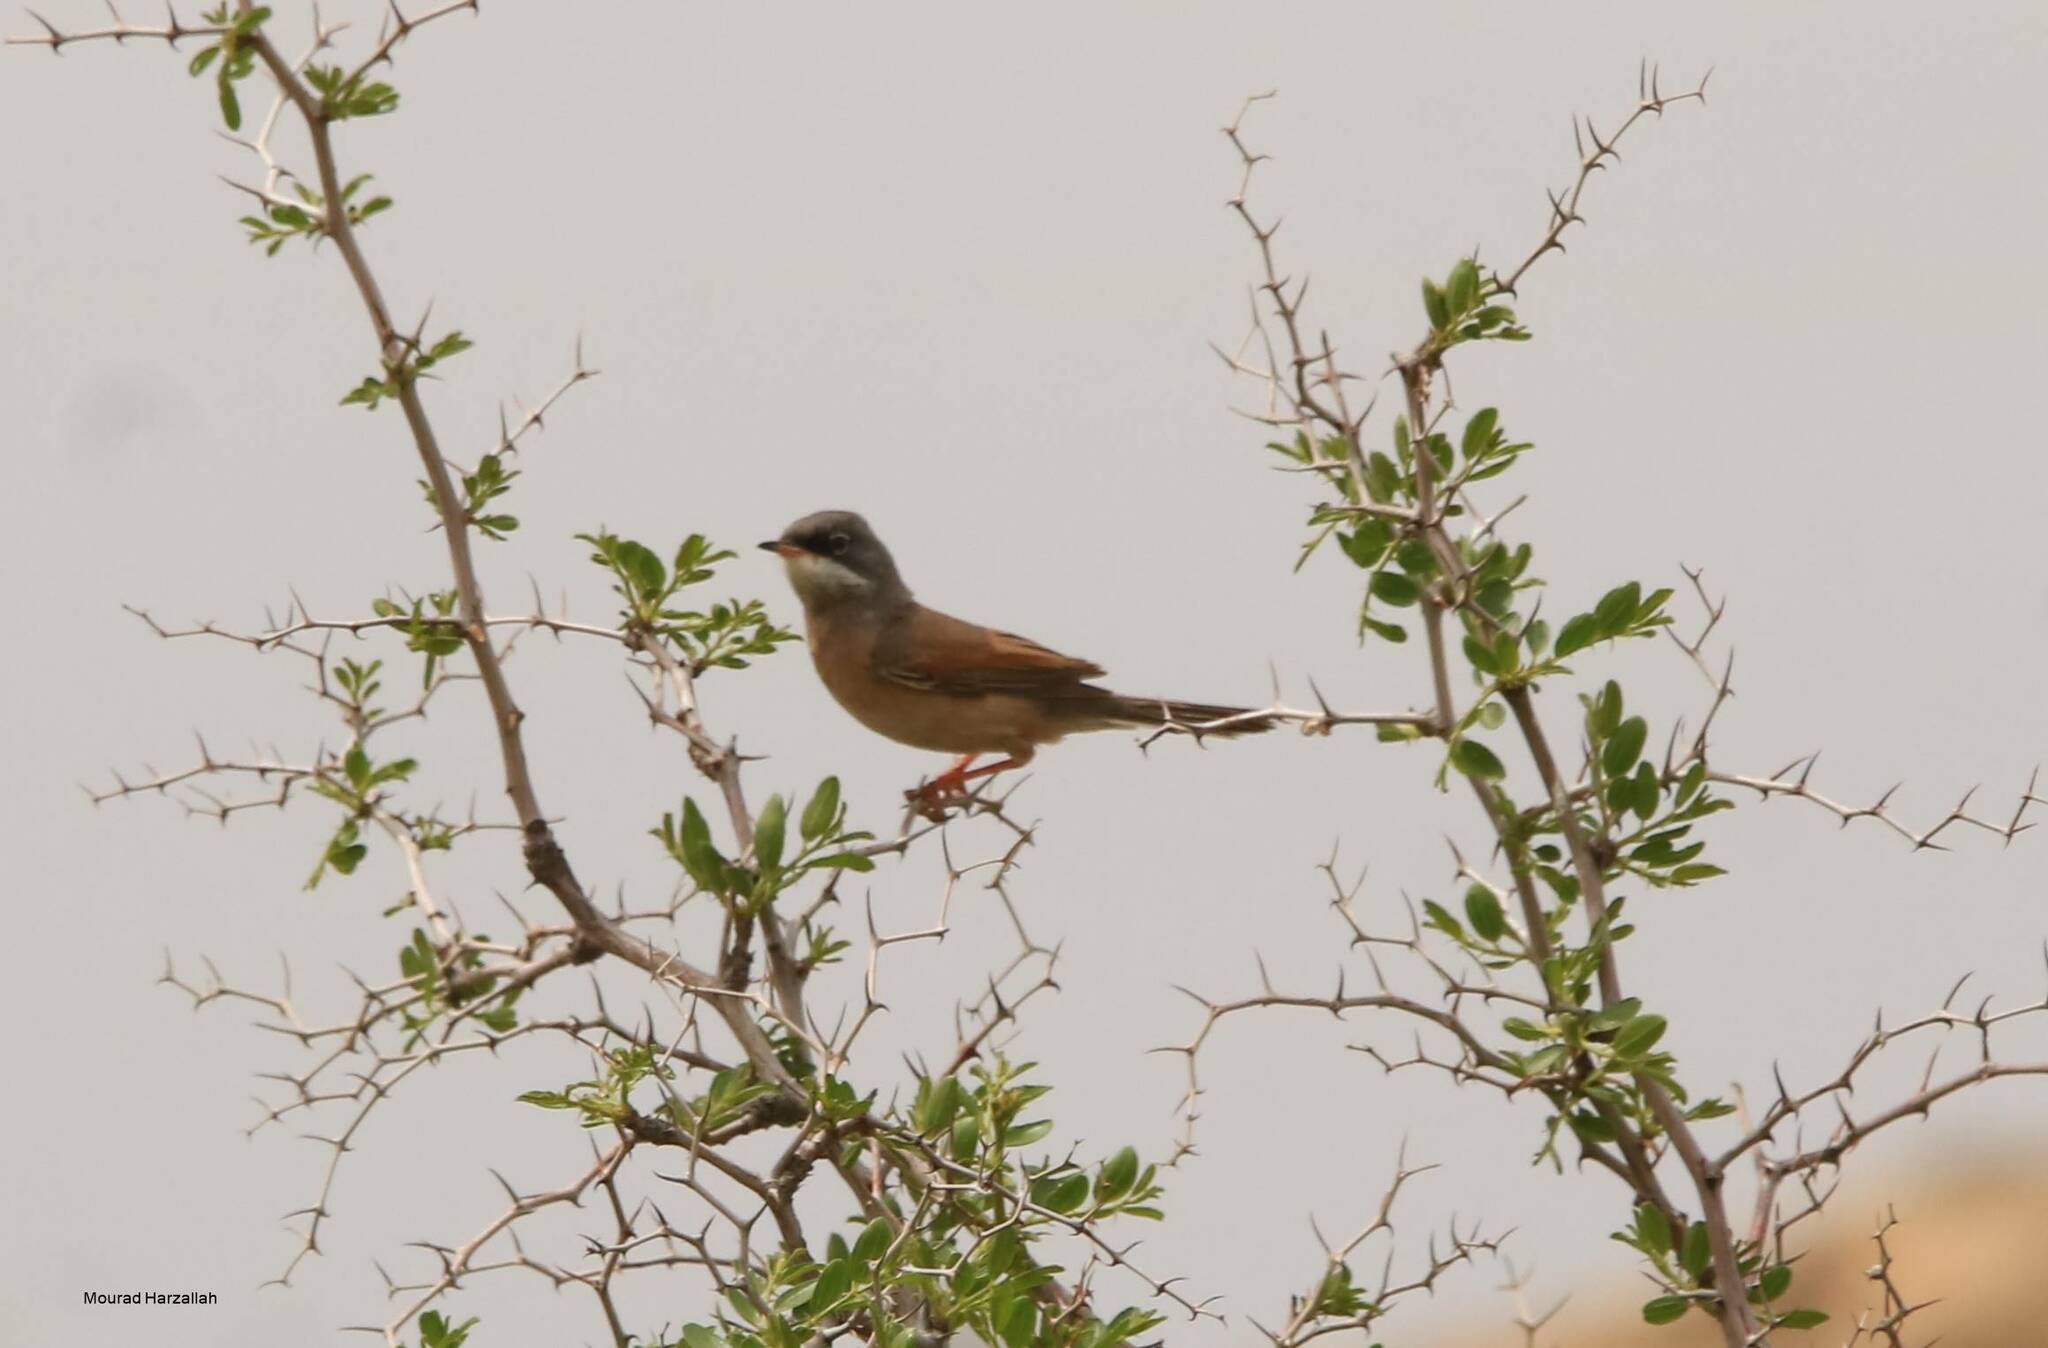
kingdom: Animalia
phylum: Chordata
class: Aves
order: Passeriformes
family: Sylviidae
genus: Sylvia
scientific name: Sylvia conspicillata
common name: Spectacled warbler
